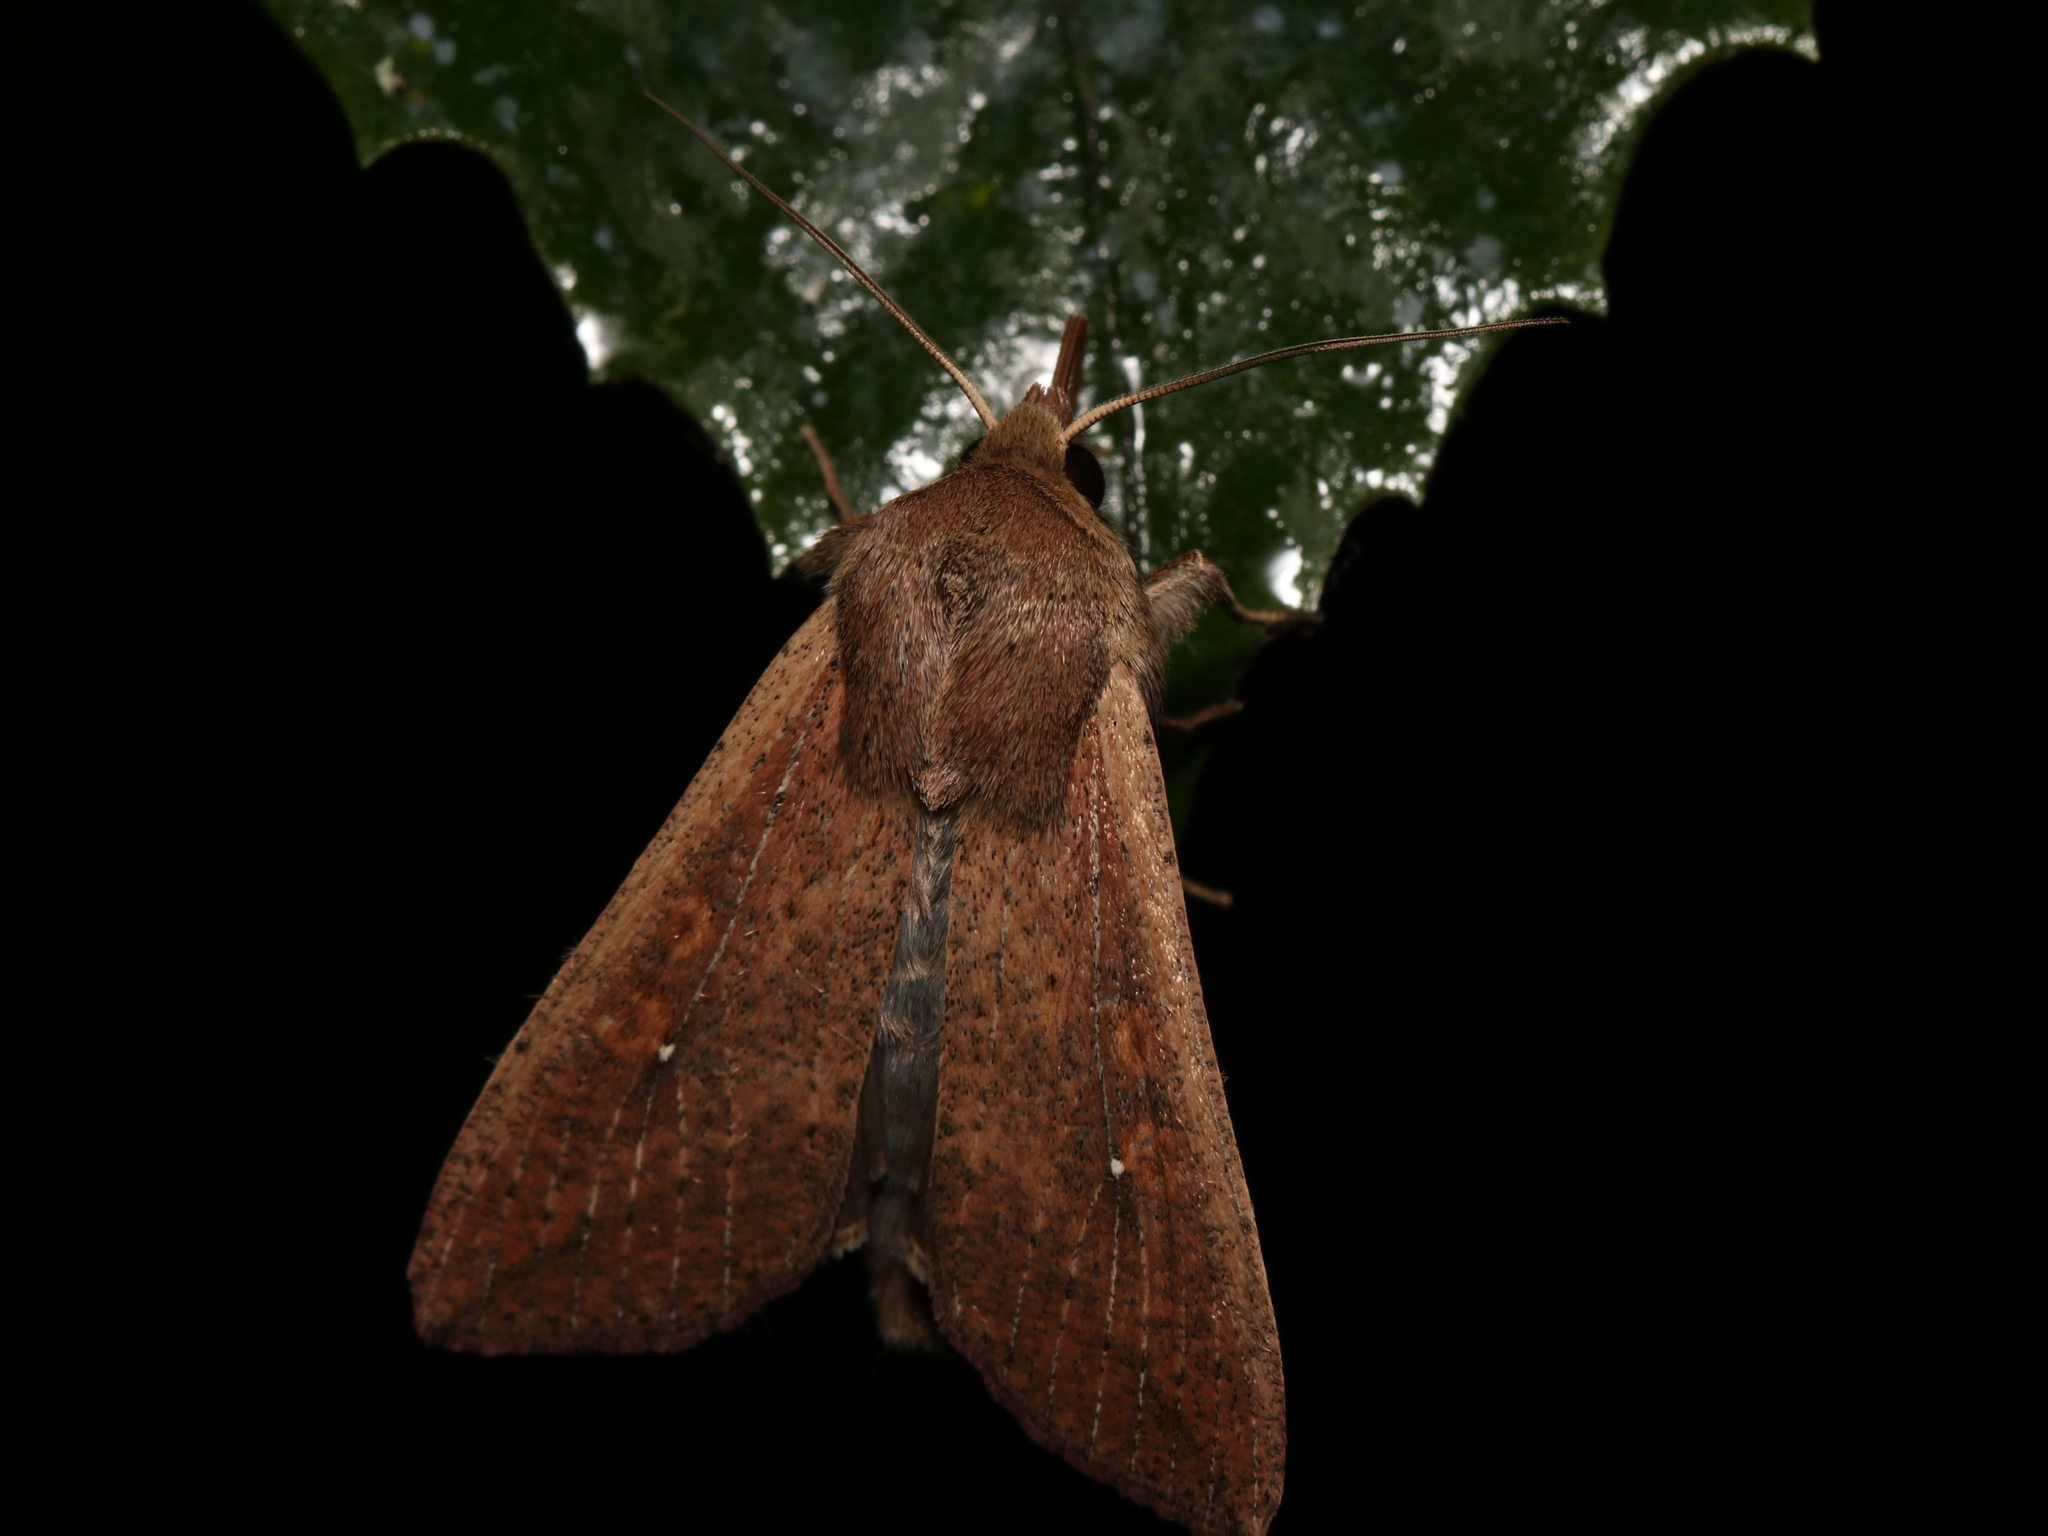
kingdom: Animalia
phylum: Arthropoda
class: Insecta
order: Lepidoptera
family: Noctuidae
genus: Mythimna
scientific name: Mythimna unipuncta
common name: White-speck
